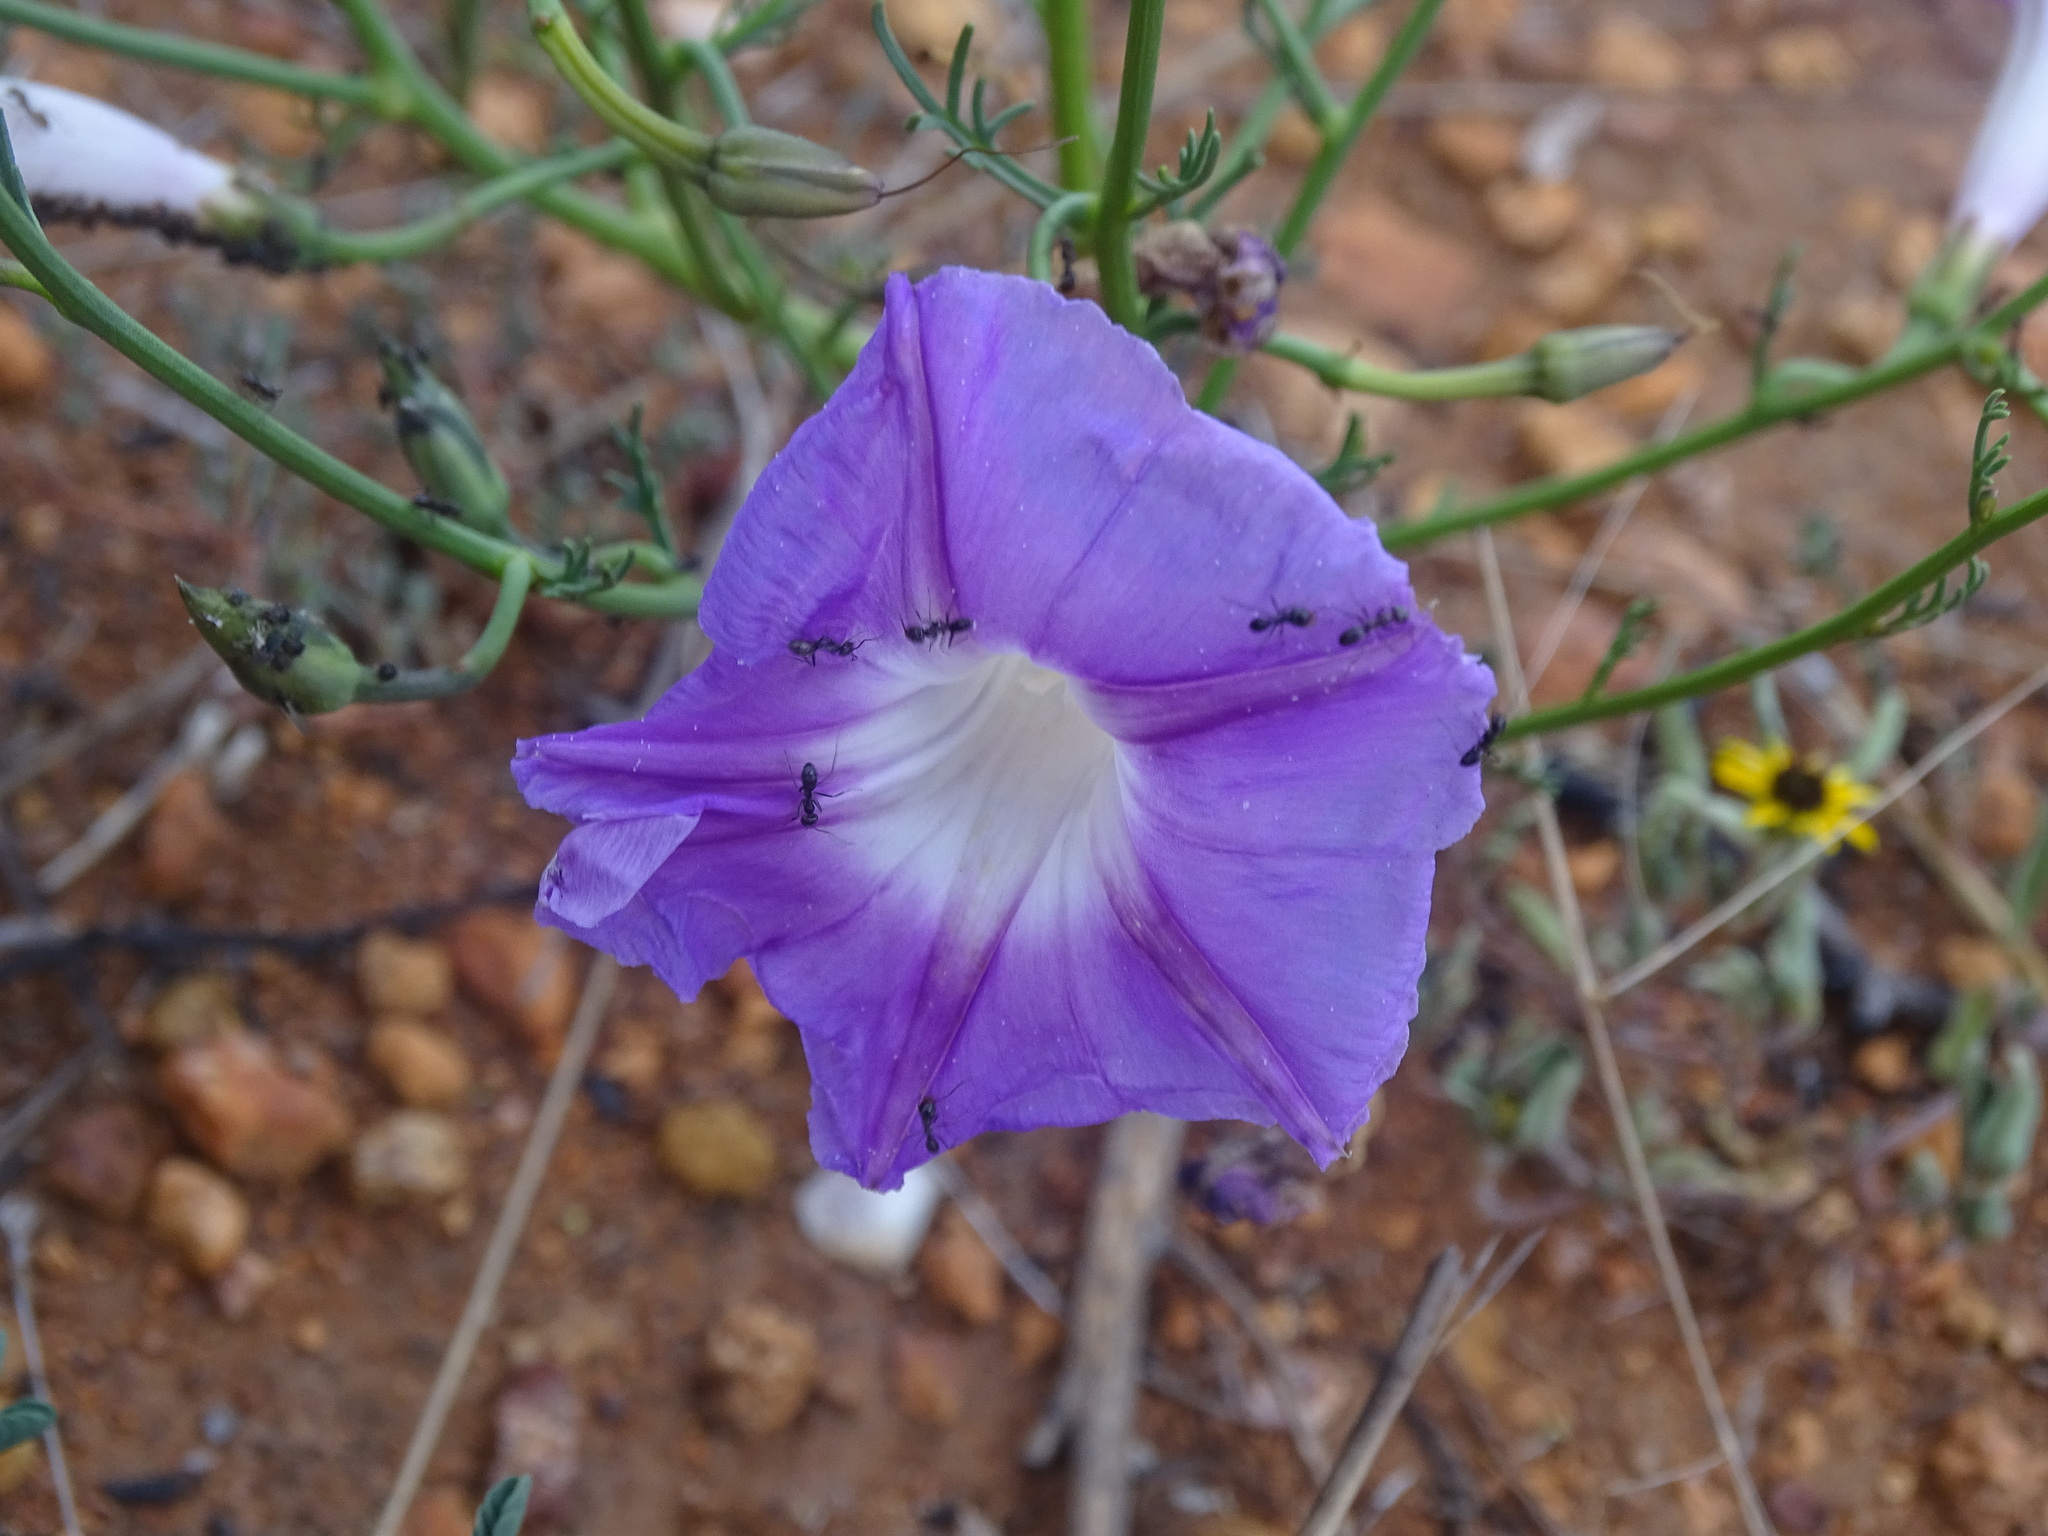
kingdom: Plantae
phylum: Tracheophyta
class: Magnoliopsida
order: Solanales
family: Convolvulaceae
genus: Ipomoea
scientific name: Ipomoea sescossiana
